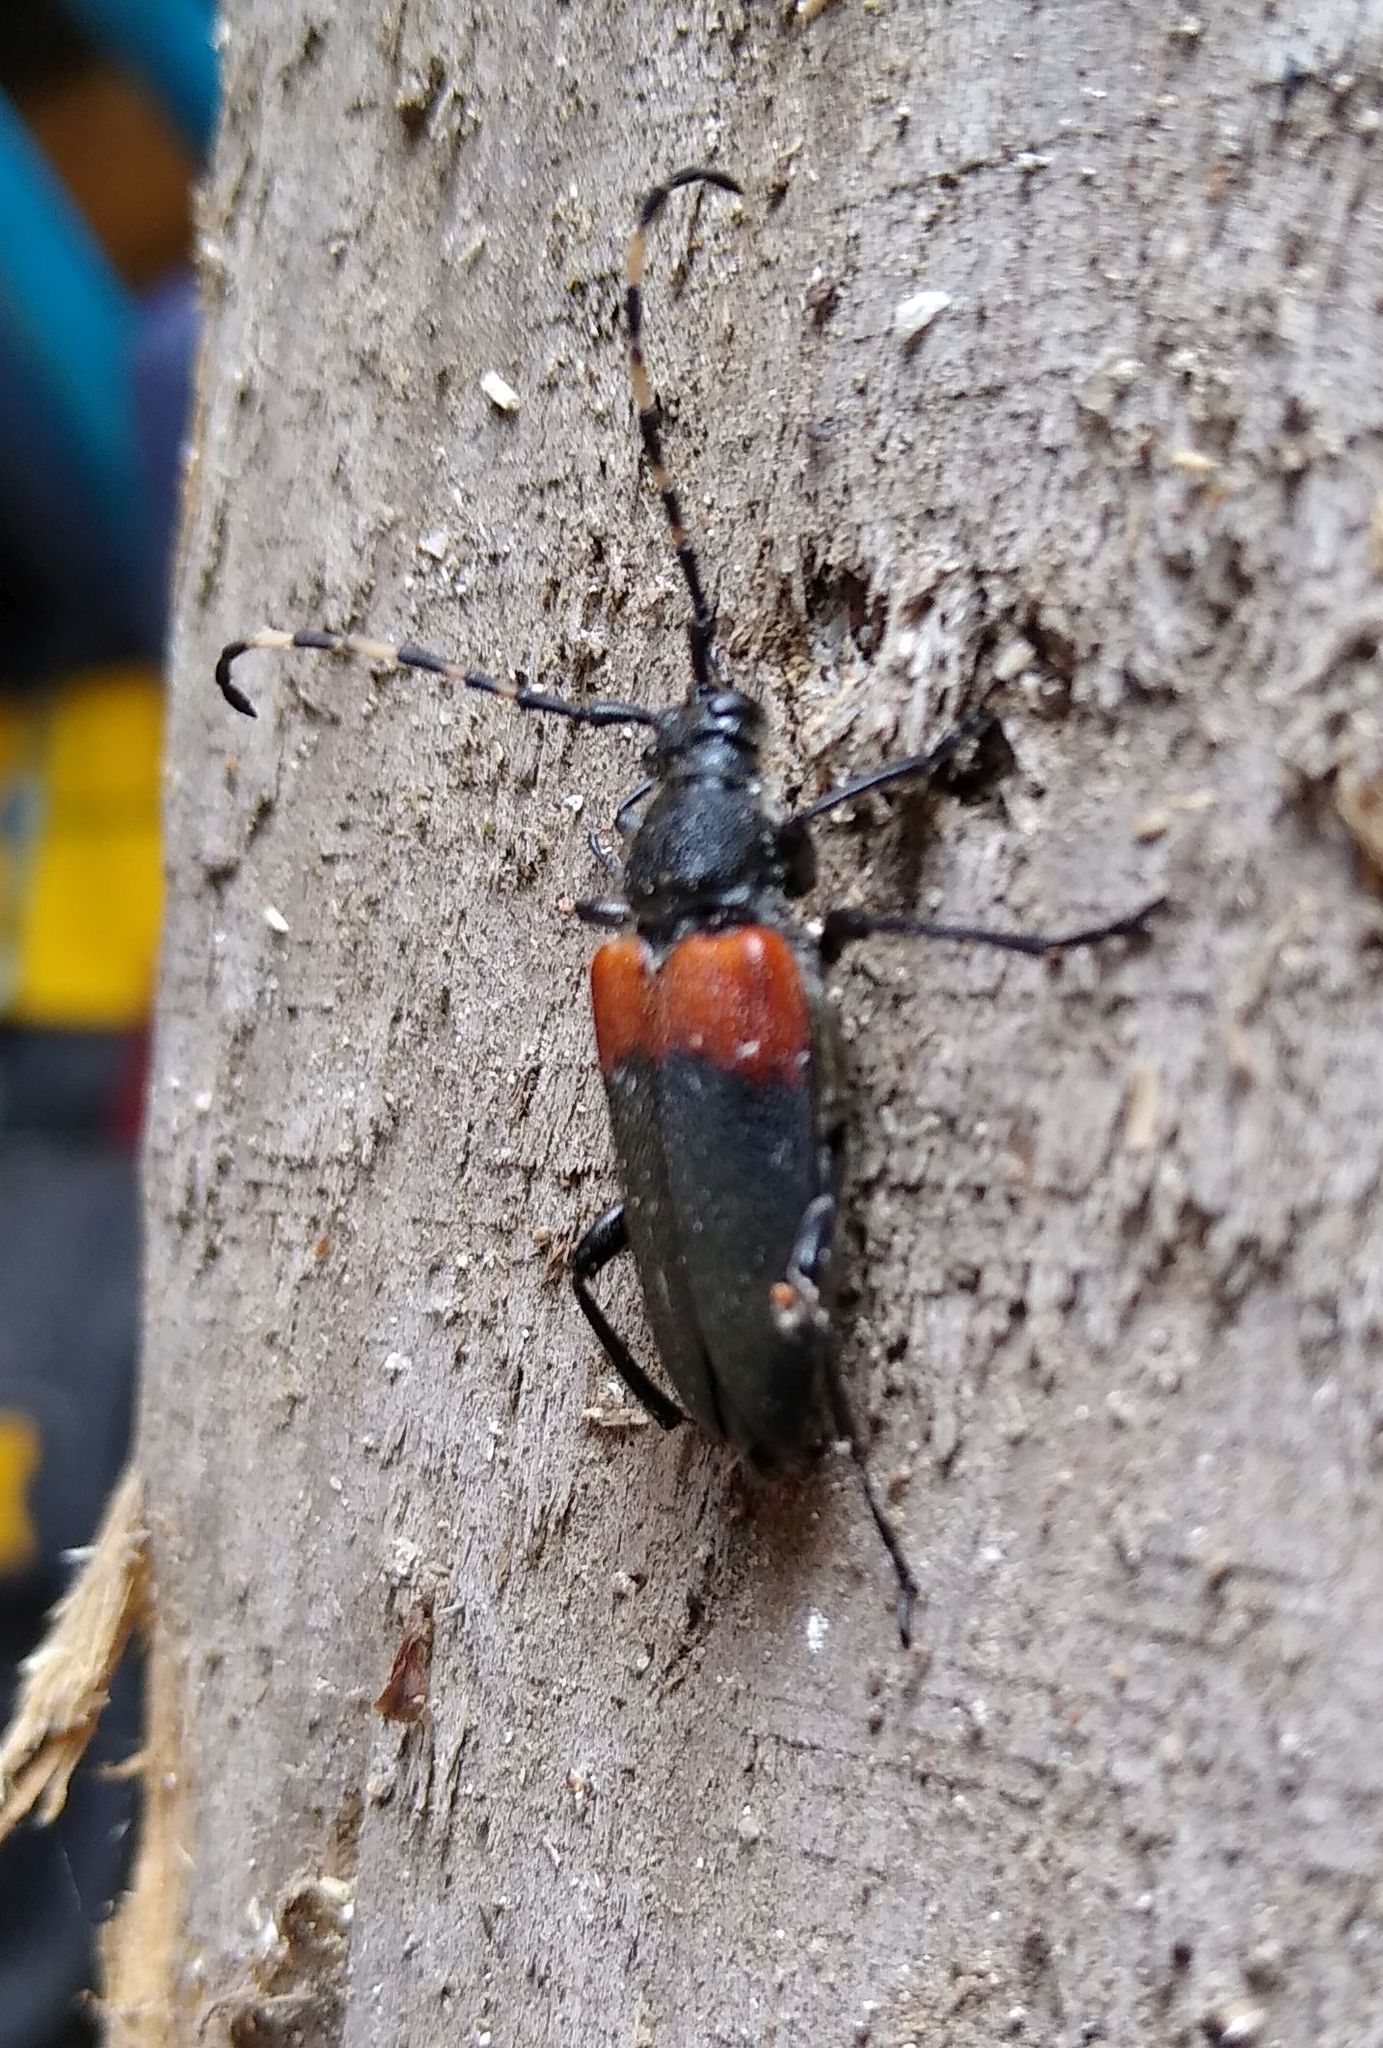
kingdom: Animalia
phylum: Arthropoda
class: Insecta
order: Coleoptera
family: Cerambycidae
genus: Stictoleptura
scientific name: Stictoleptura canadensis
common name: Red-shouldered pine borer
